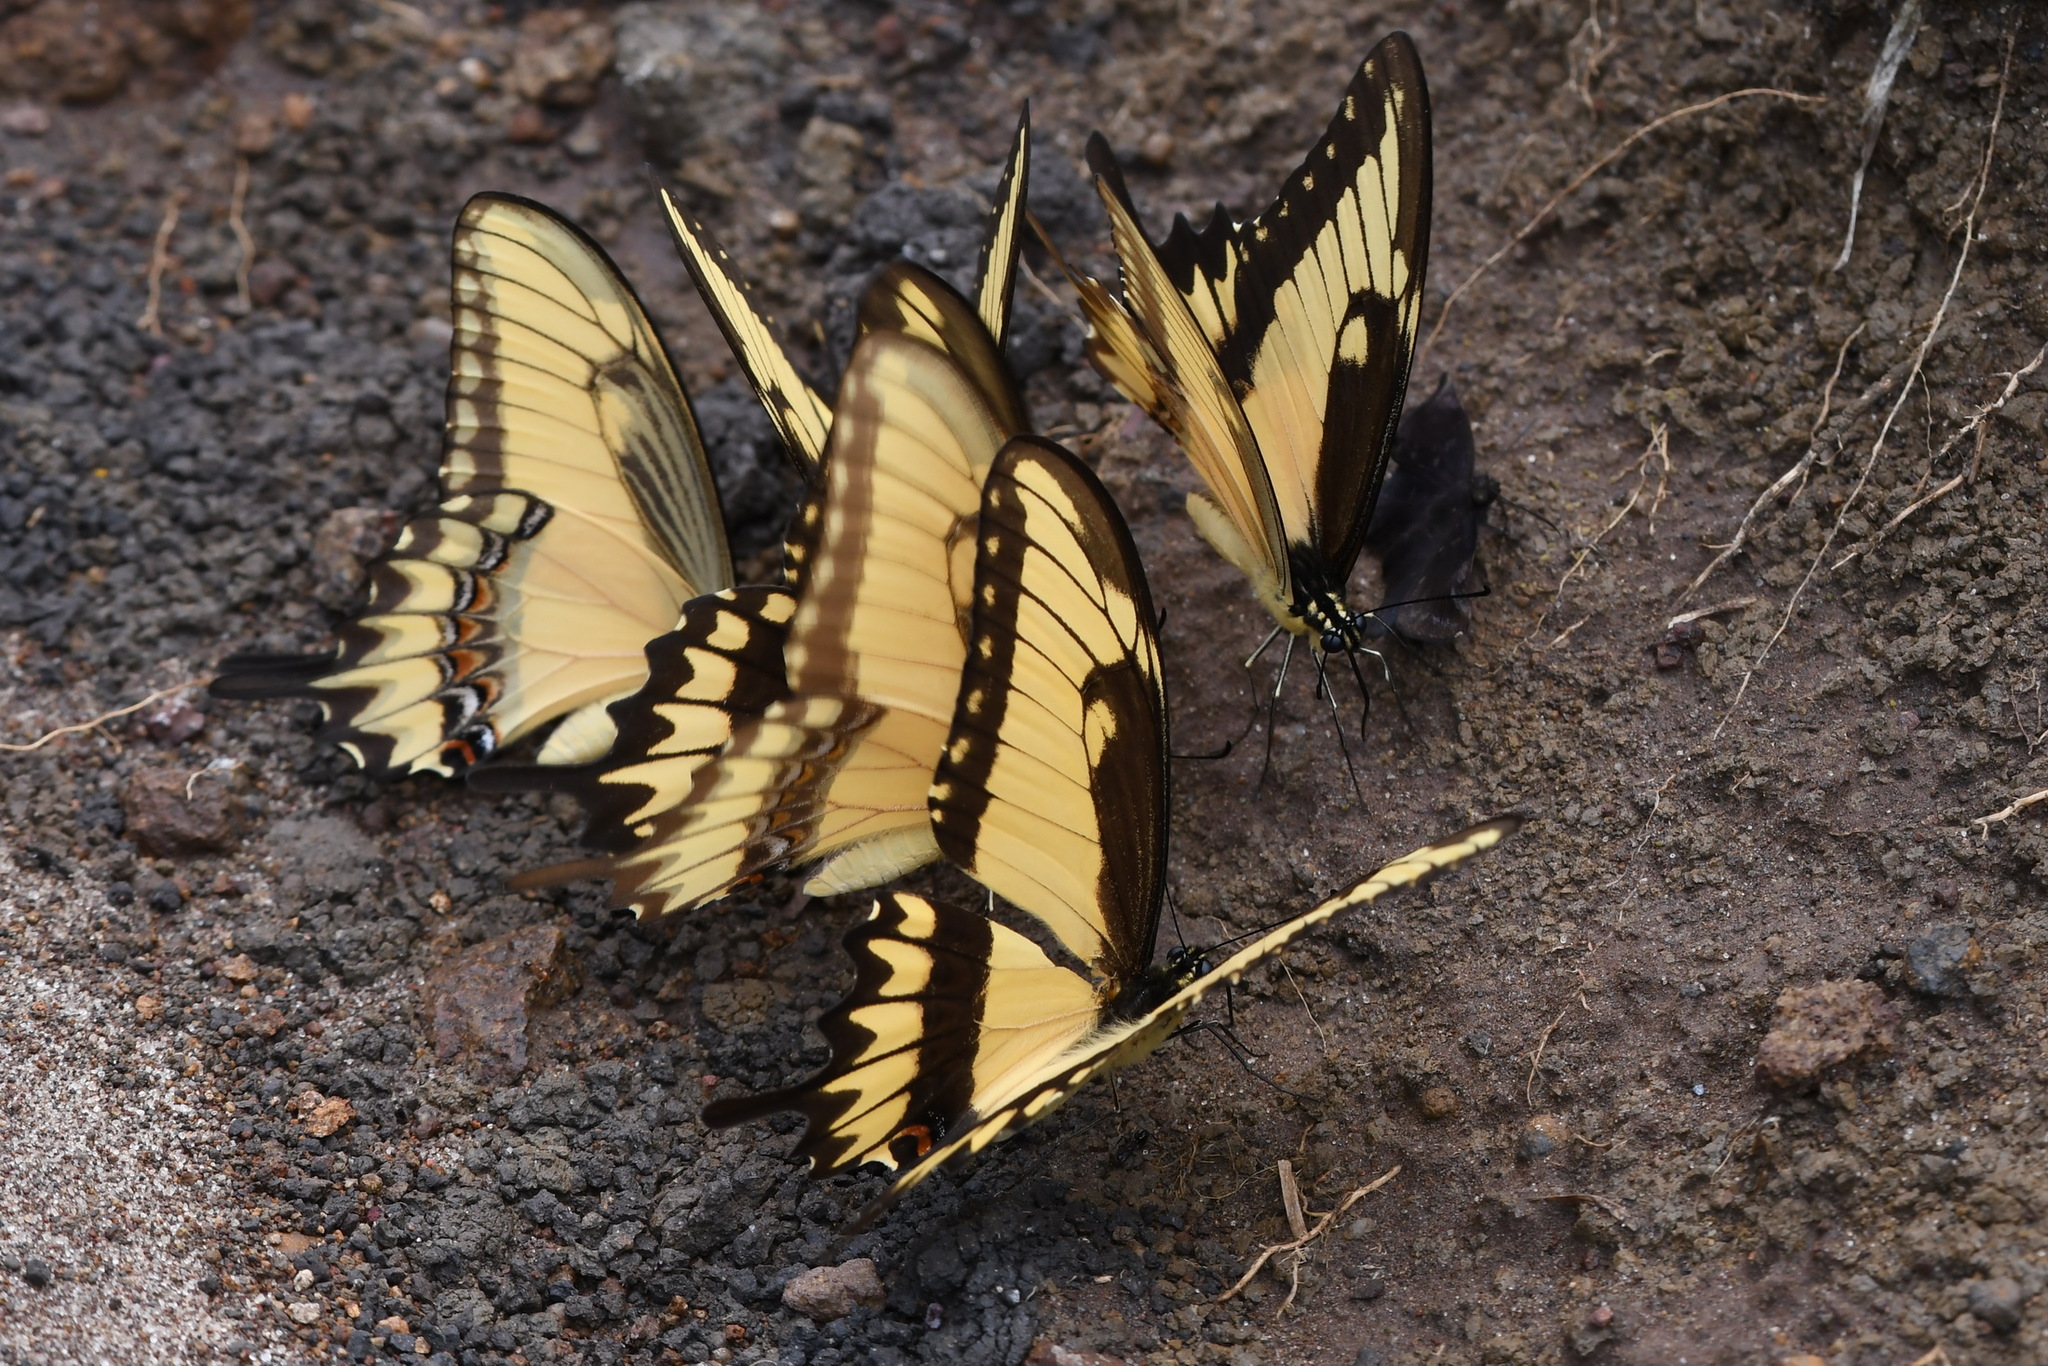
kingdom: Animalia
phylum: Arthropoda
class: Insecta
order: Lepidoptera
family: Papilionidae
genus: Papilio
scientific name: Papilio astyalus
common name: Astyalus swallowtail
